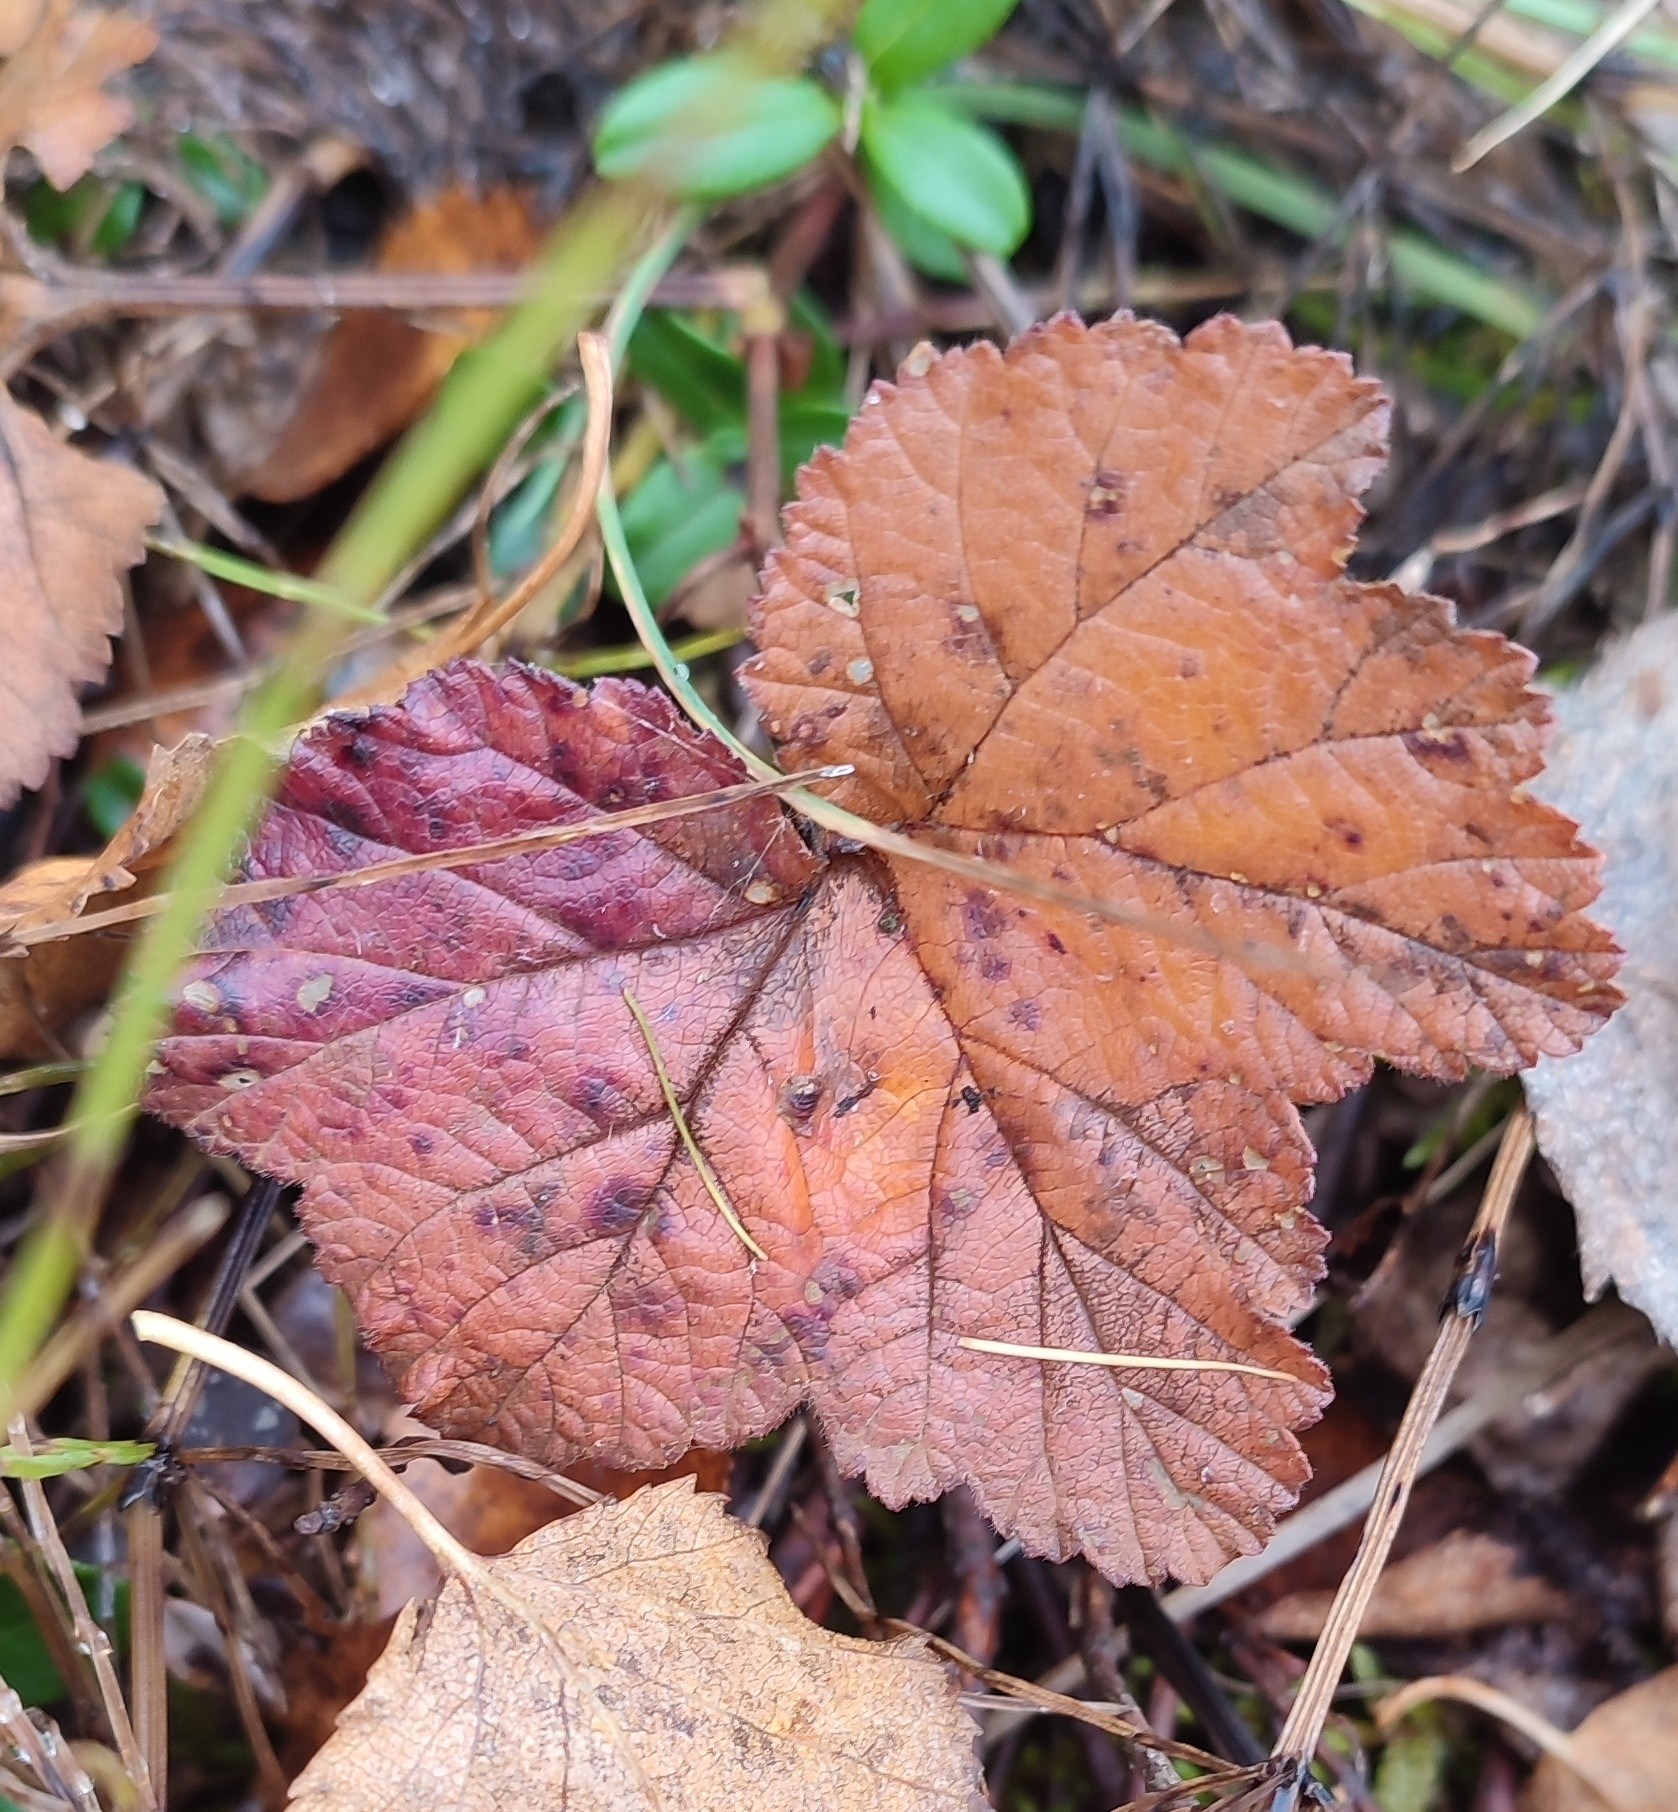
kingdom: Plantae
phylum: Tracheophyta
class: Magnoliopsida
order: Rosales
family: Rosaceae
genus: Rubus
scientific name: Rubus chamaemorus
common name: Cloudberry
